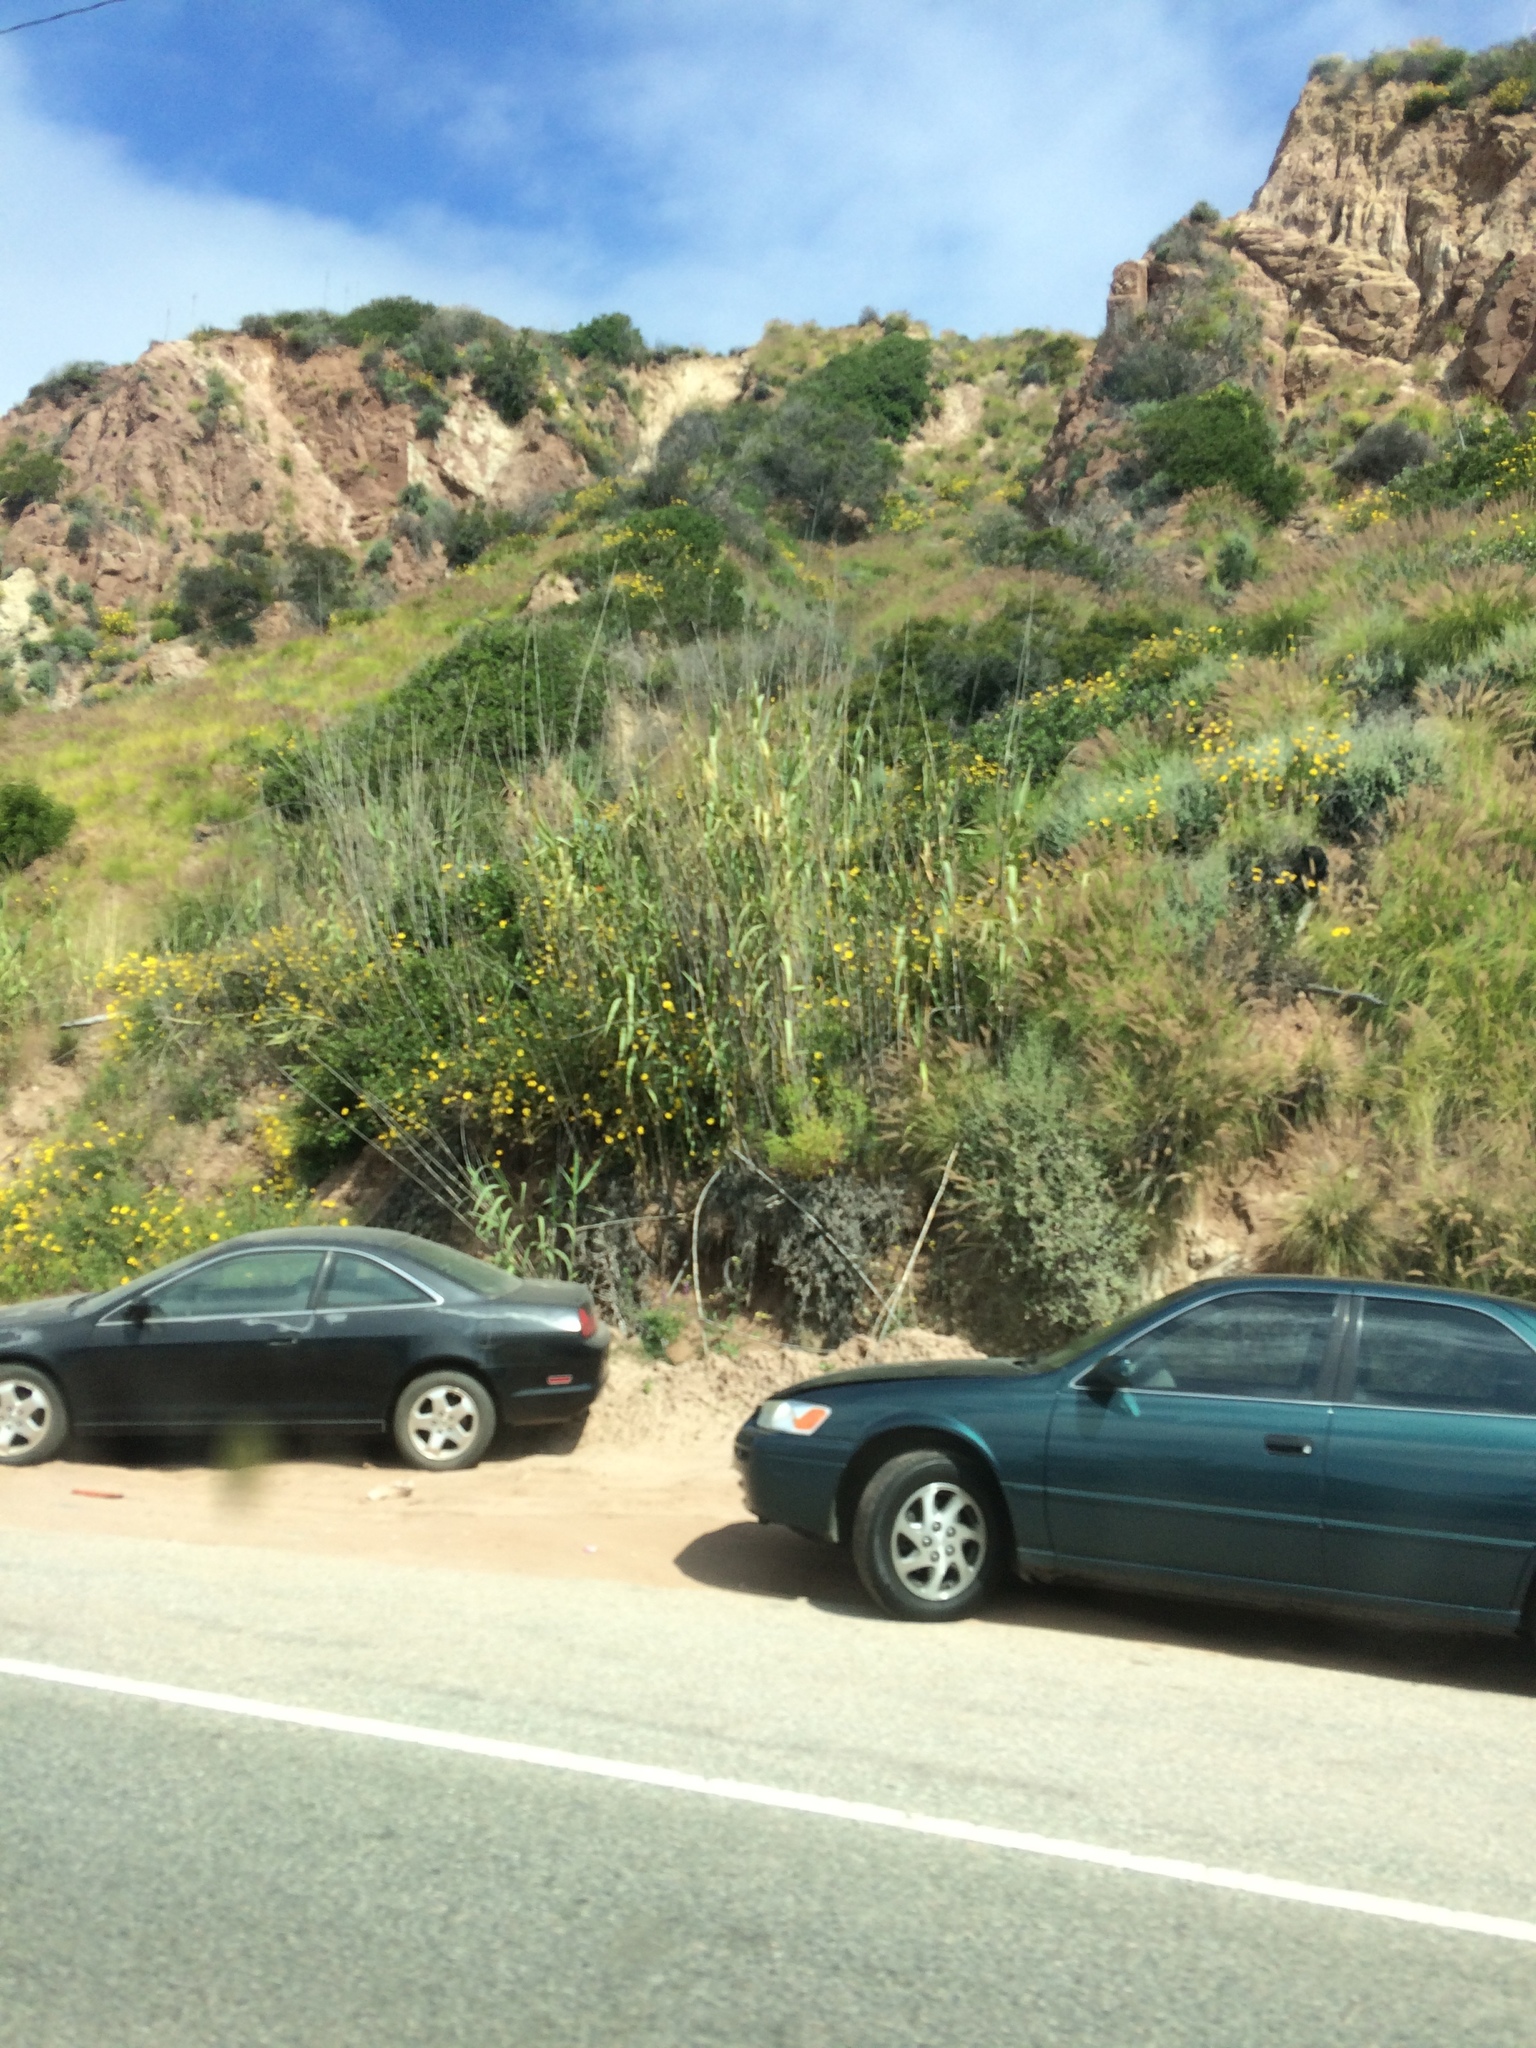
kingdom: Plantae
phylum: Tracheophyta
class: Liliopsida
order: Poales
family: Poaceae
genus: Arundo
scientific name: Arundo donax
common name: Giant reed
